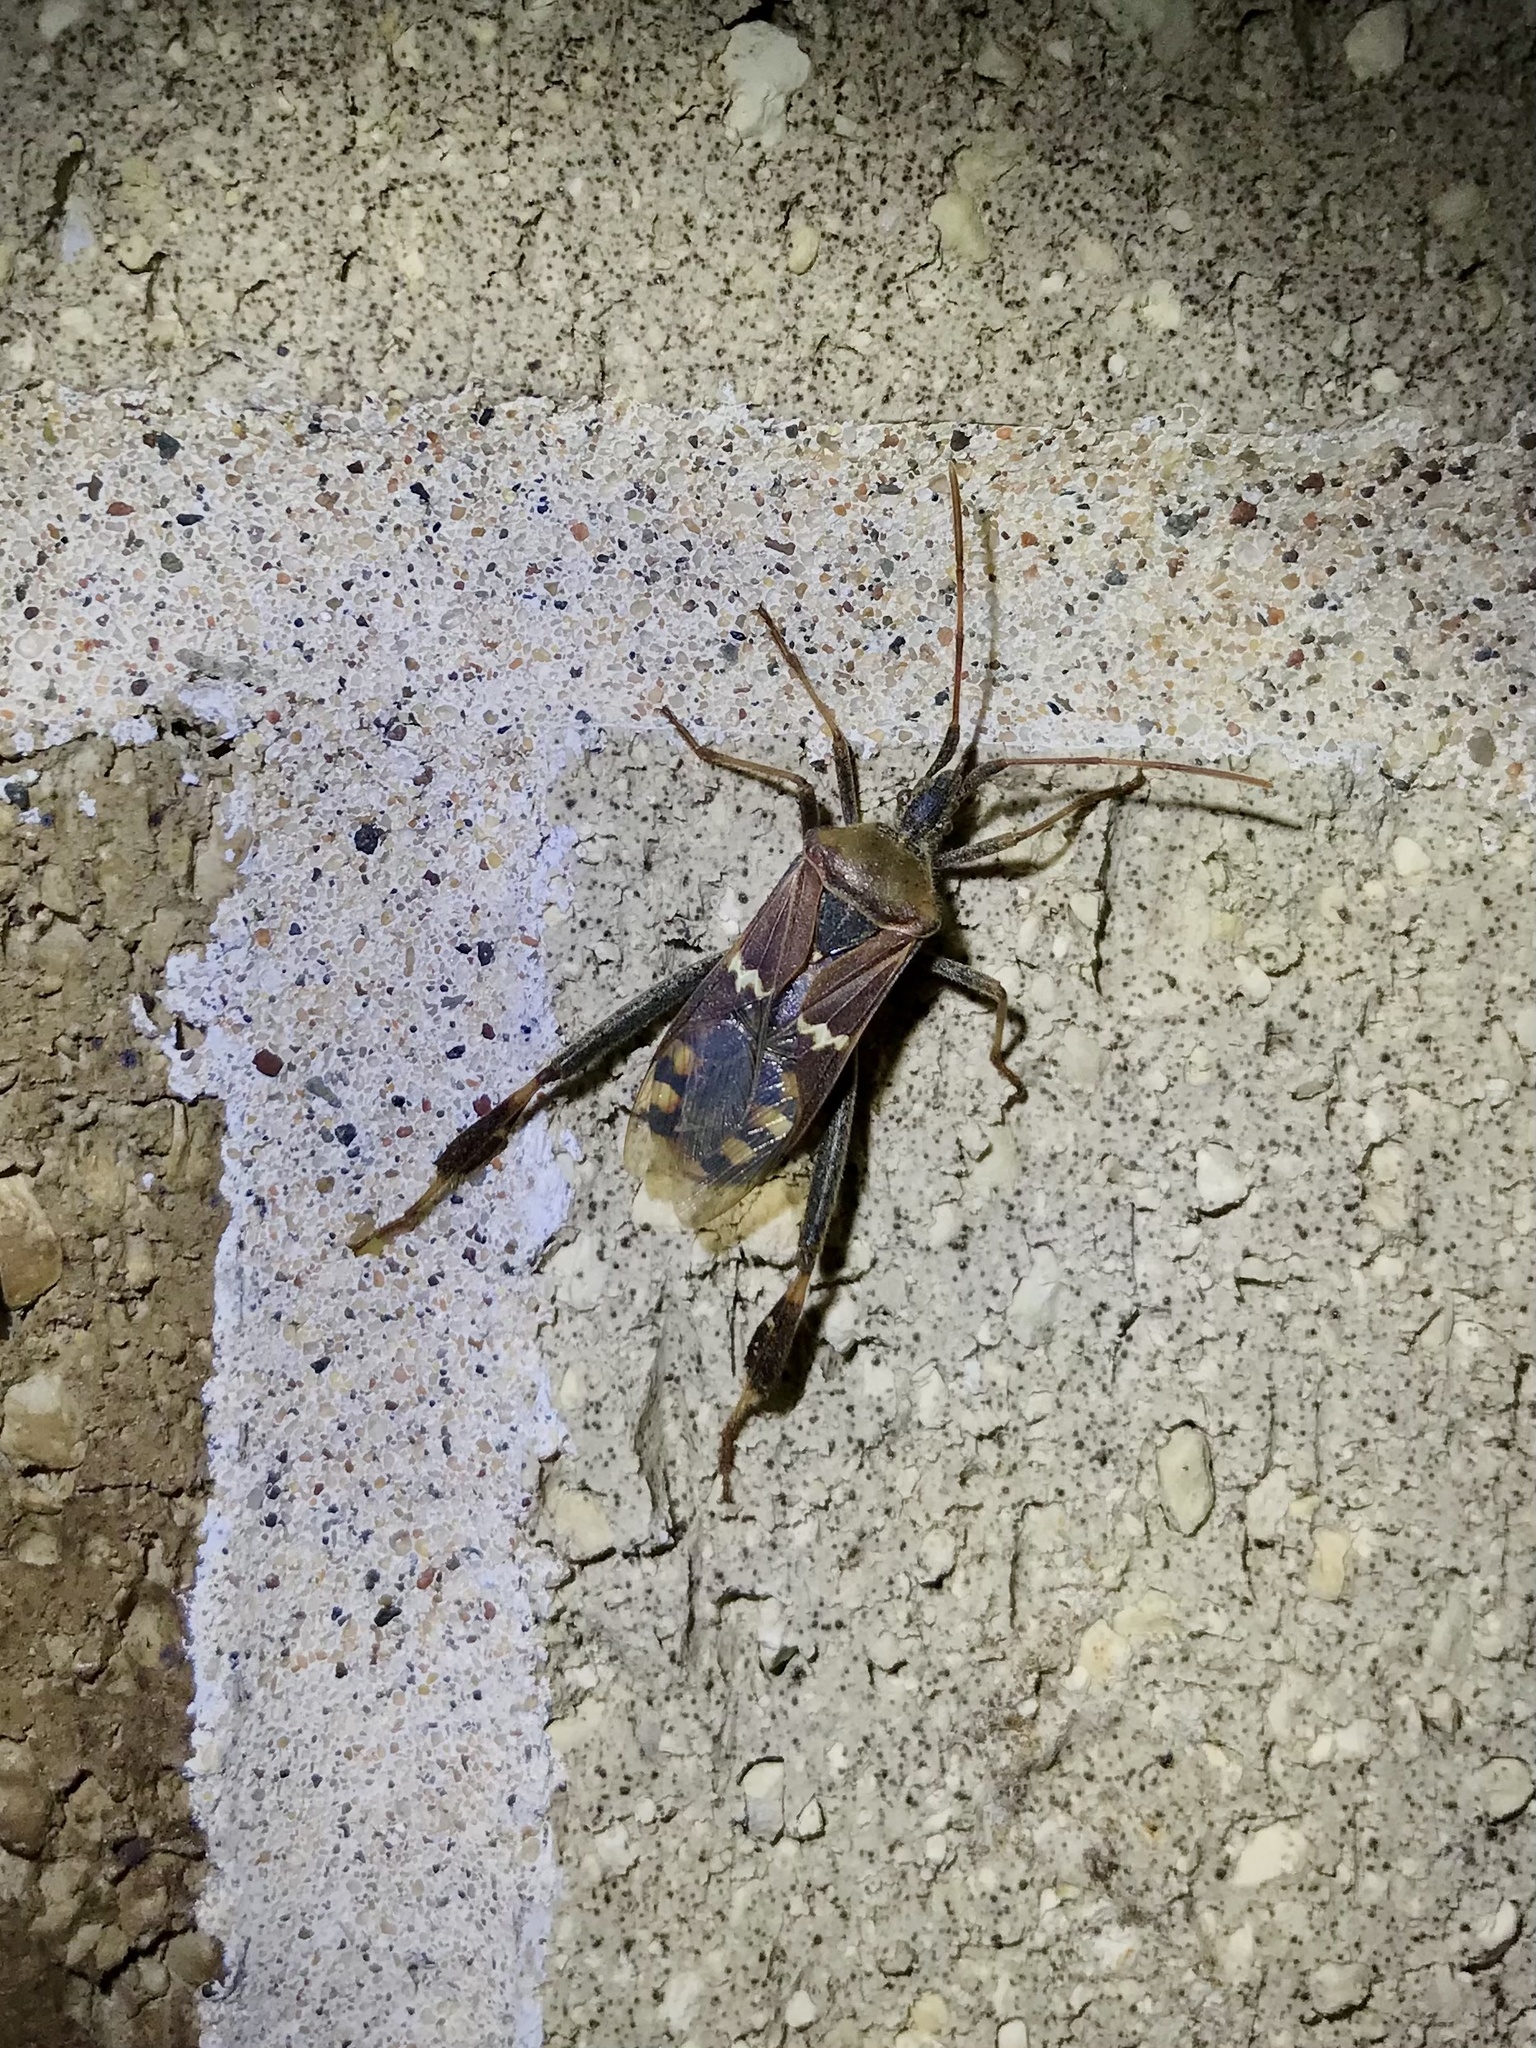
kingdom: Animalia
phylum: Arthropoda
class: Insecta
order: Hemiptera
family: Coreidae
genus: Leptoglossus
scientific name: Leptoglossus clypealis
